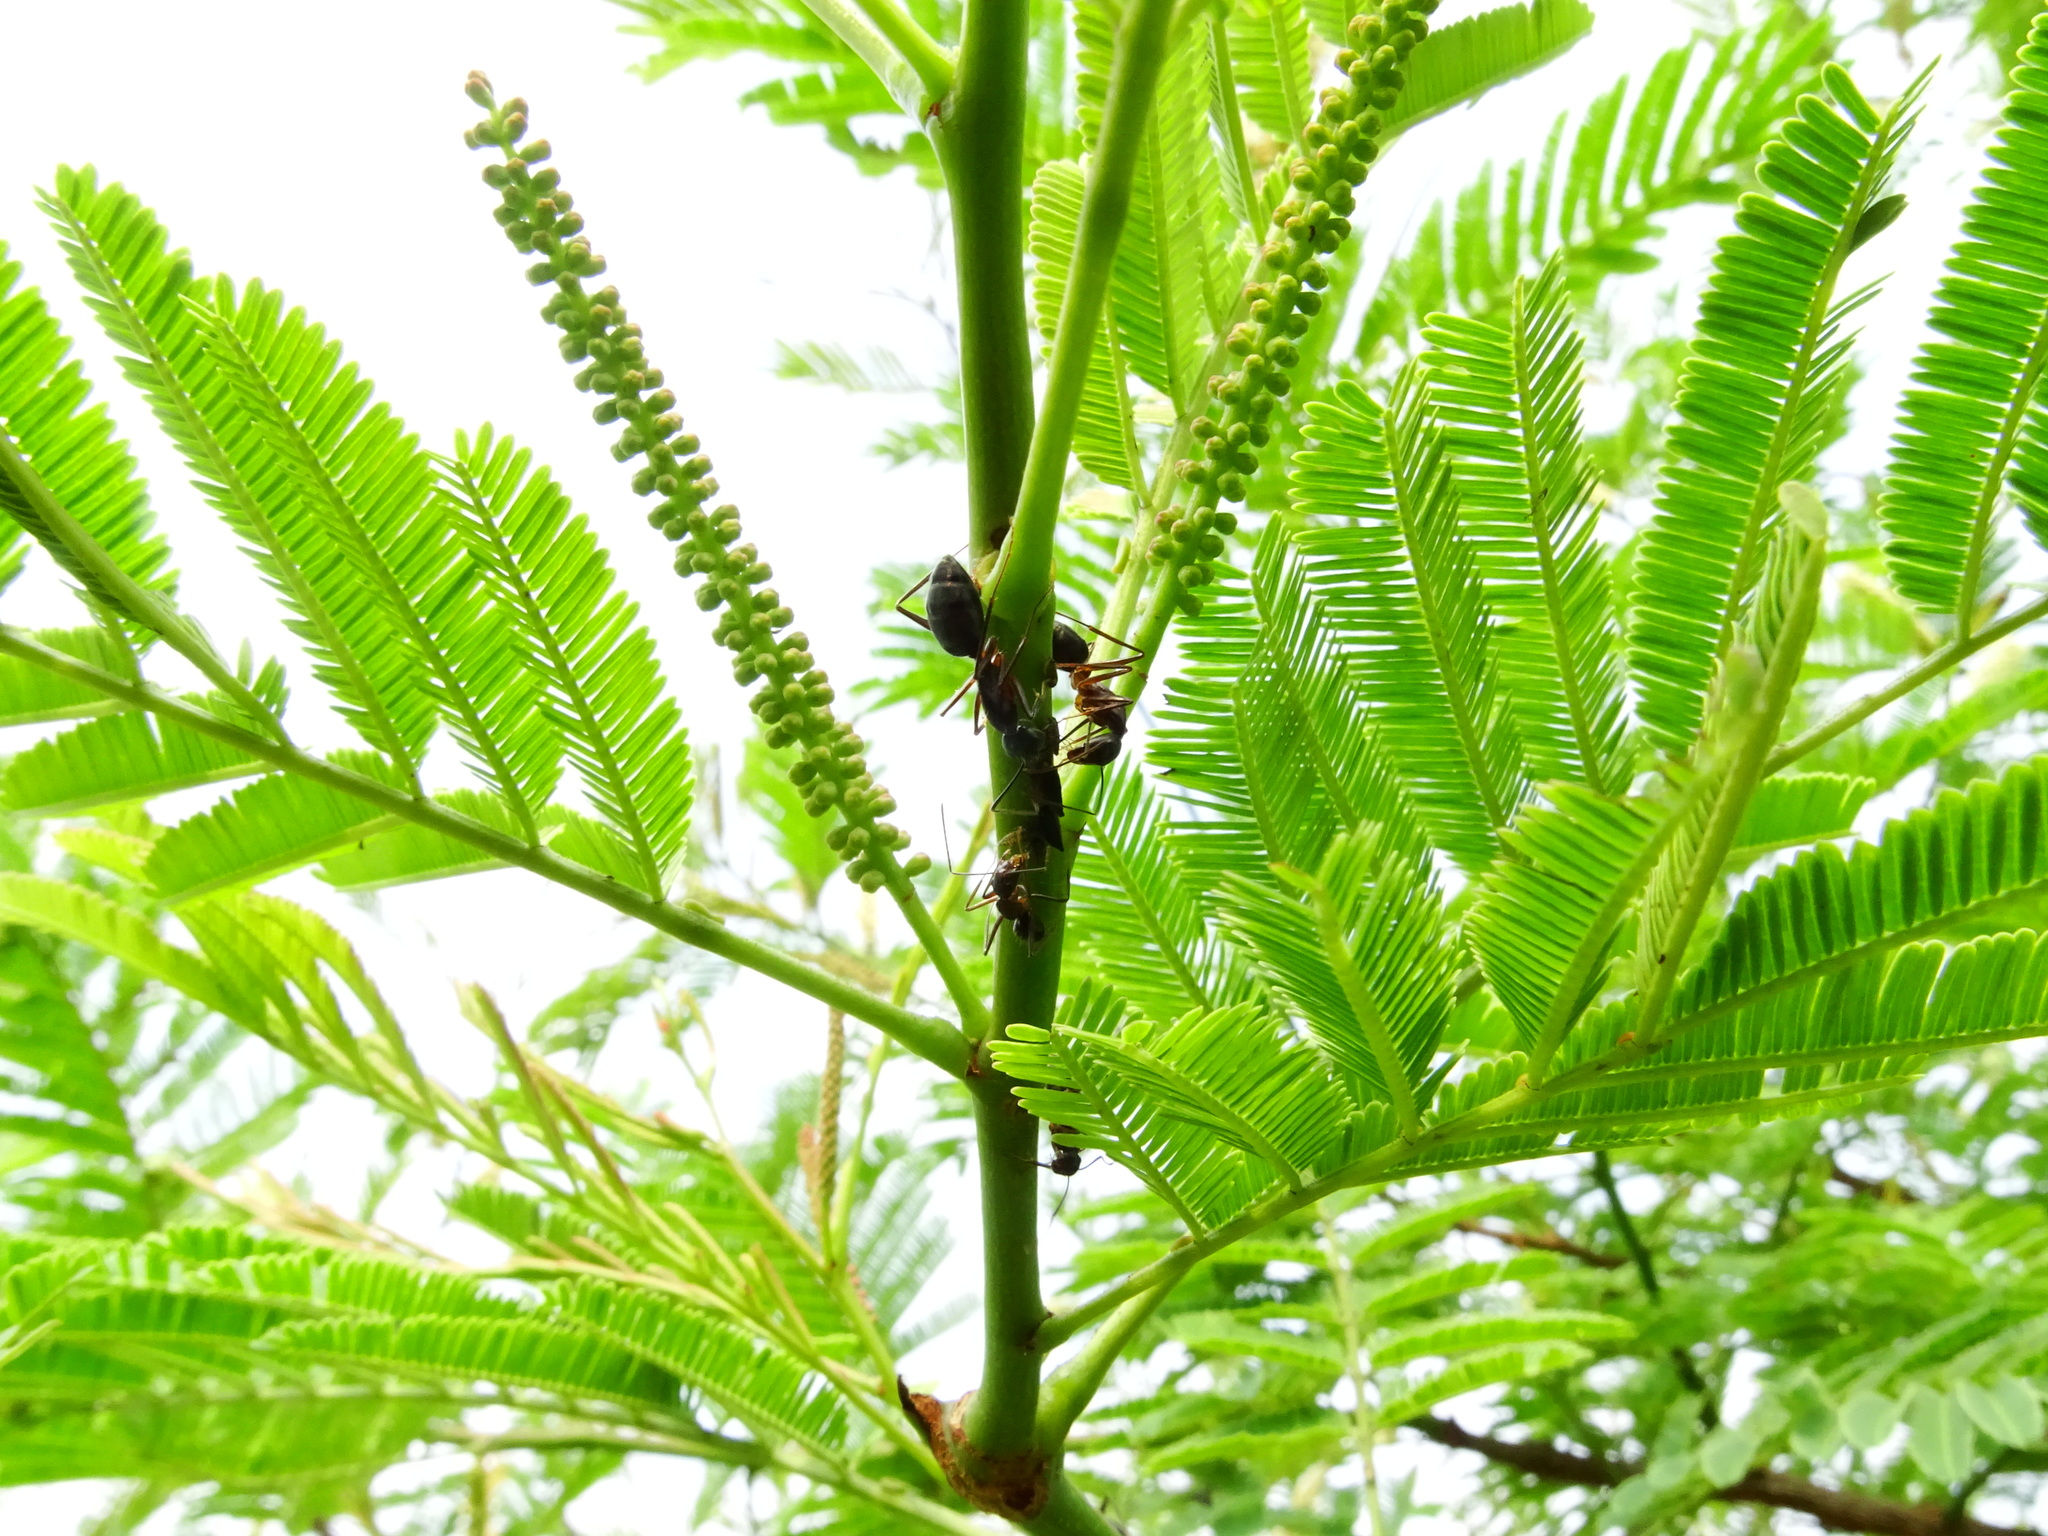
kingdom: Plantae
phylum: Tracheophyta
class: Magnoliopsida
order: Fabales
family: Fabaceae
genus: Senegalia
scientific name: Senegalia chundra
